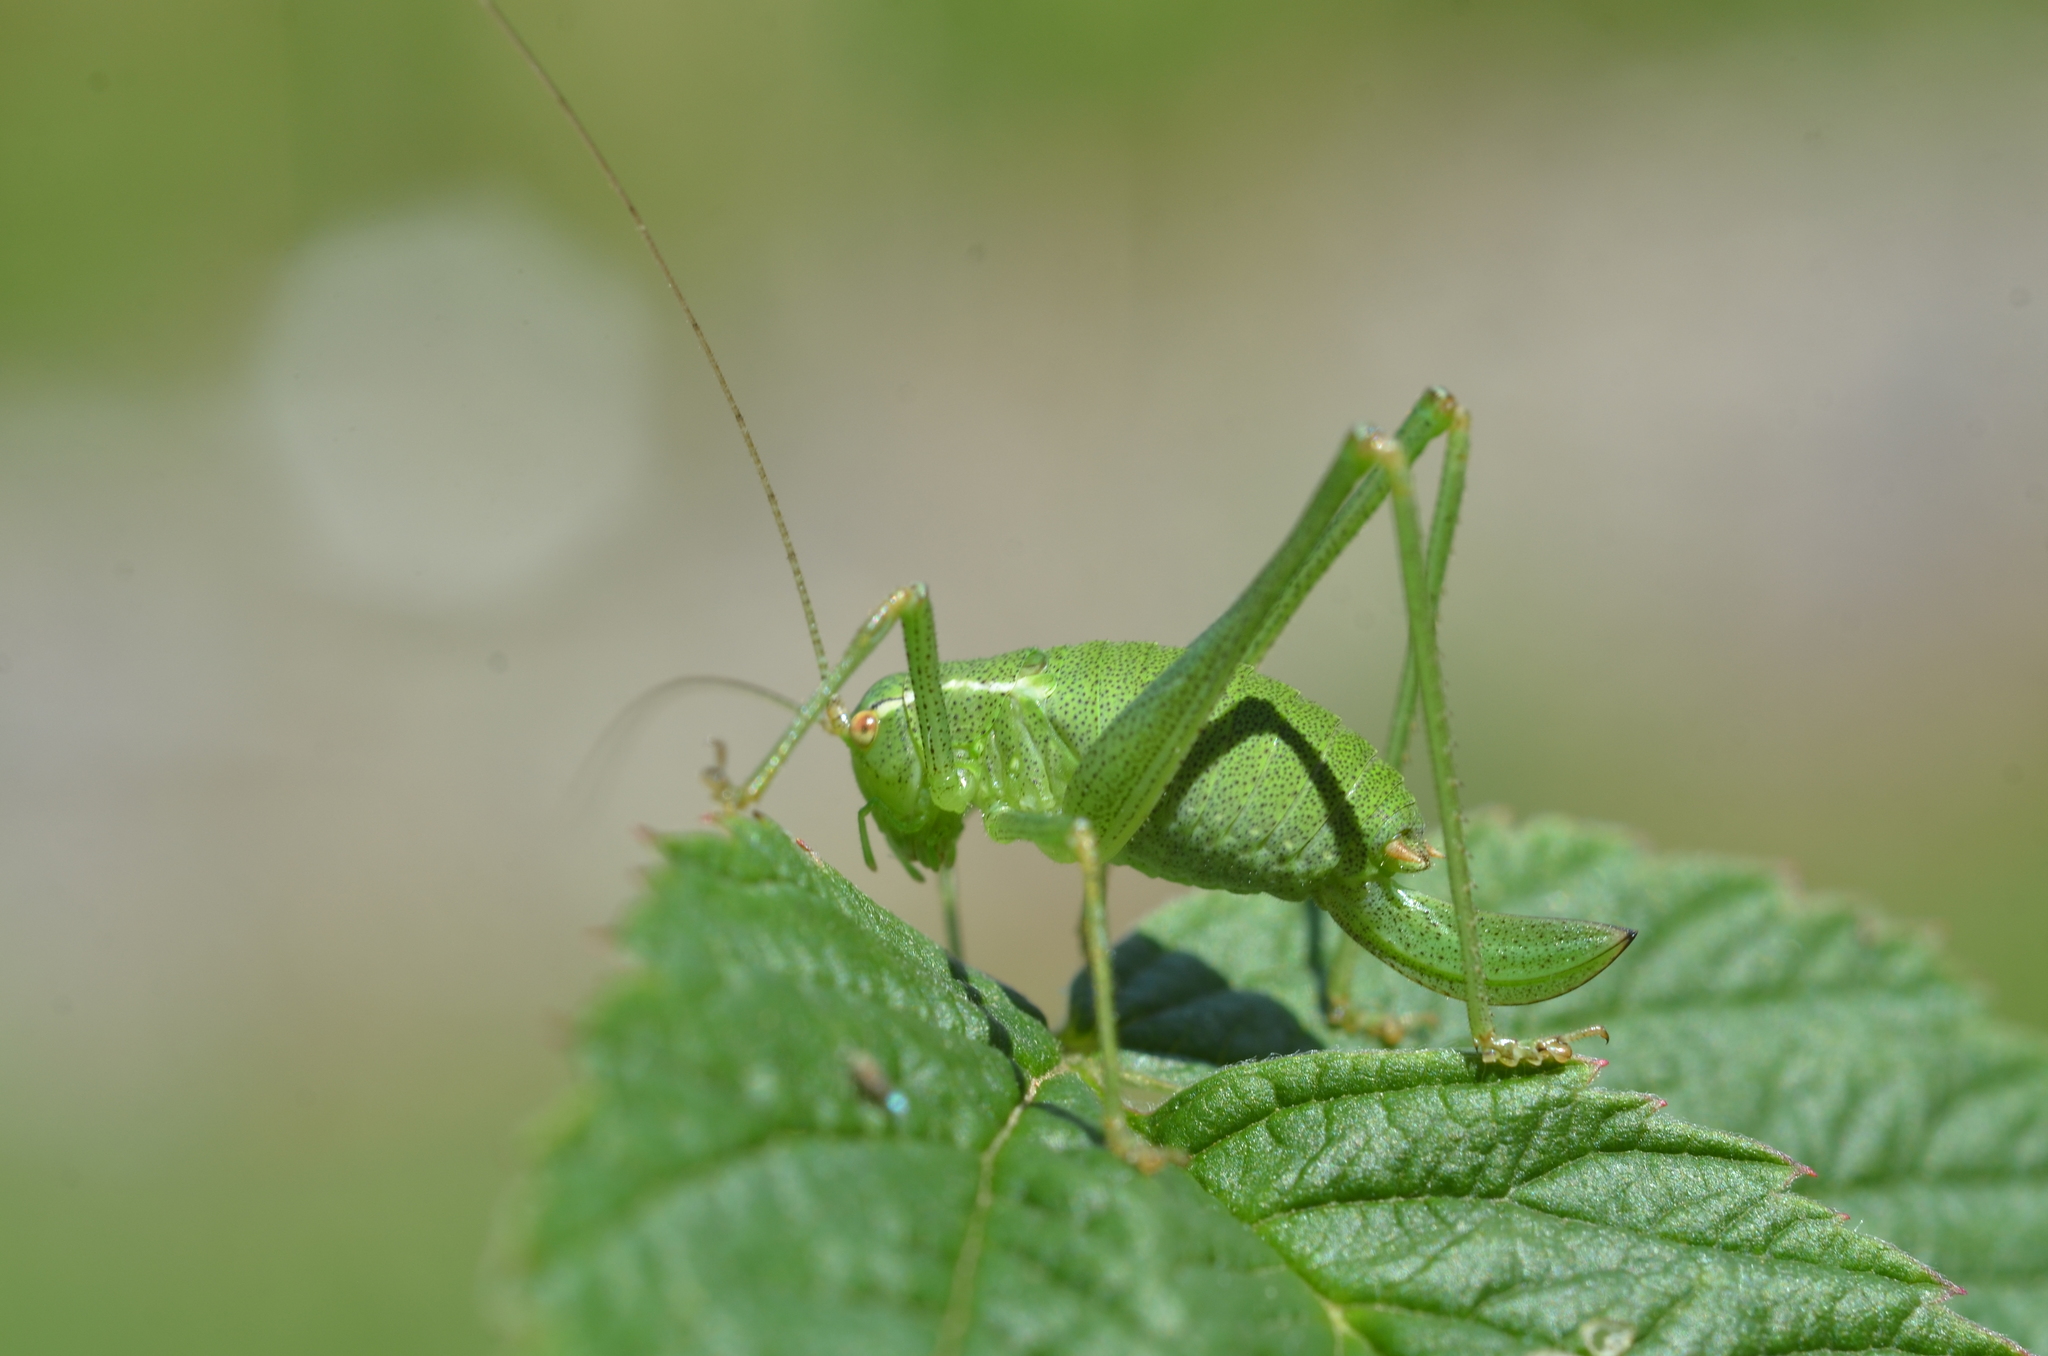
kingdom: Animalia
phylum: Arthropoda
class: Insecta
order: Orthoptera
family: Tettigoniidae
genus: Leptophyes
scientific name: Leptophyes punctatissima
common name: Speckled bush-cricket
